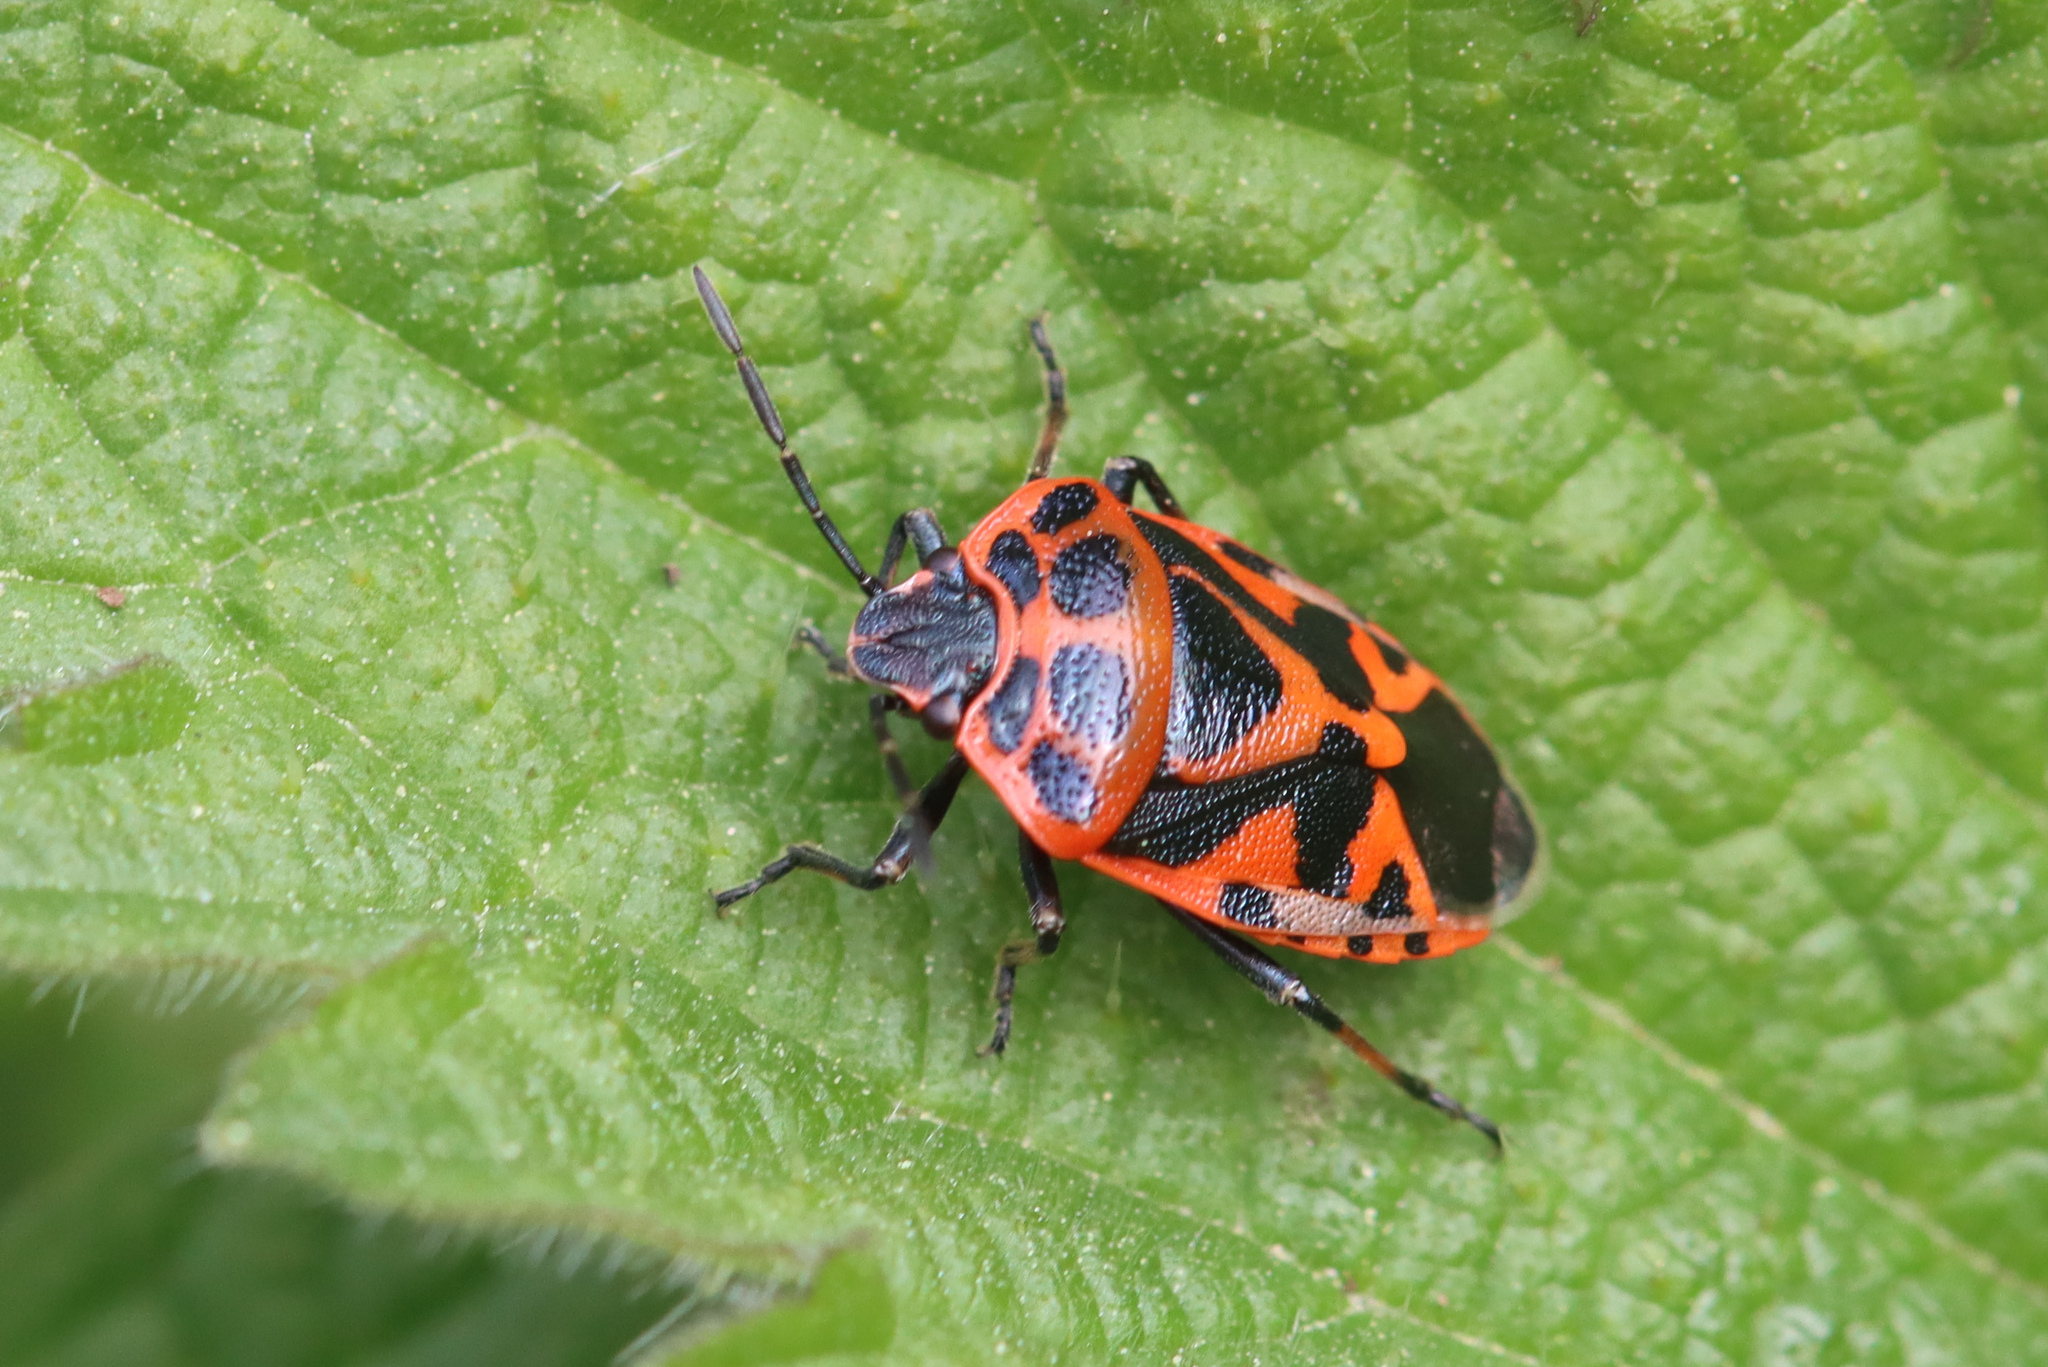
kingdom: Animalia
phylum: Arthropoda
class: Insecta
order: Hemiptera
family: Pentatomidae
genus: Eurydema
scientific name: Eurydema ornata
